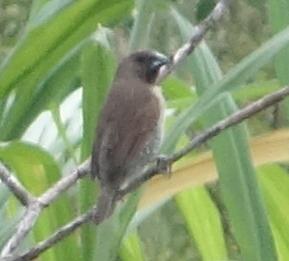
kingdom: Animalia
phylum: Chordata
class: Aves
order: Passeriformes
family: Estrildidae
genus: Lonchura
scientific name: Lonchura punctulata
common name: Scaly-breasted munia
